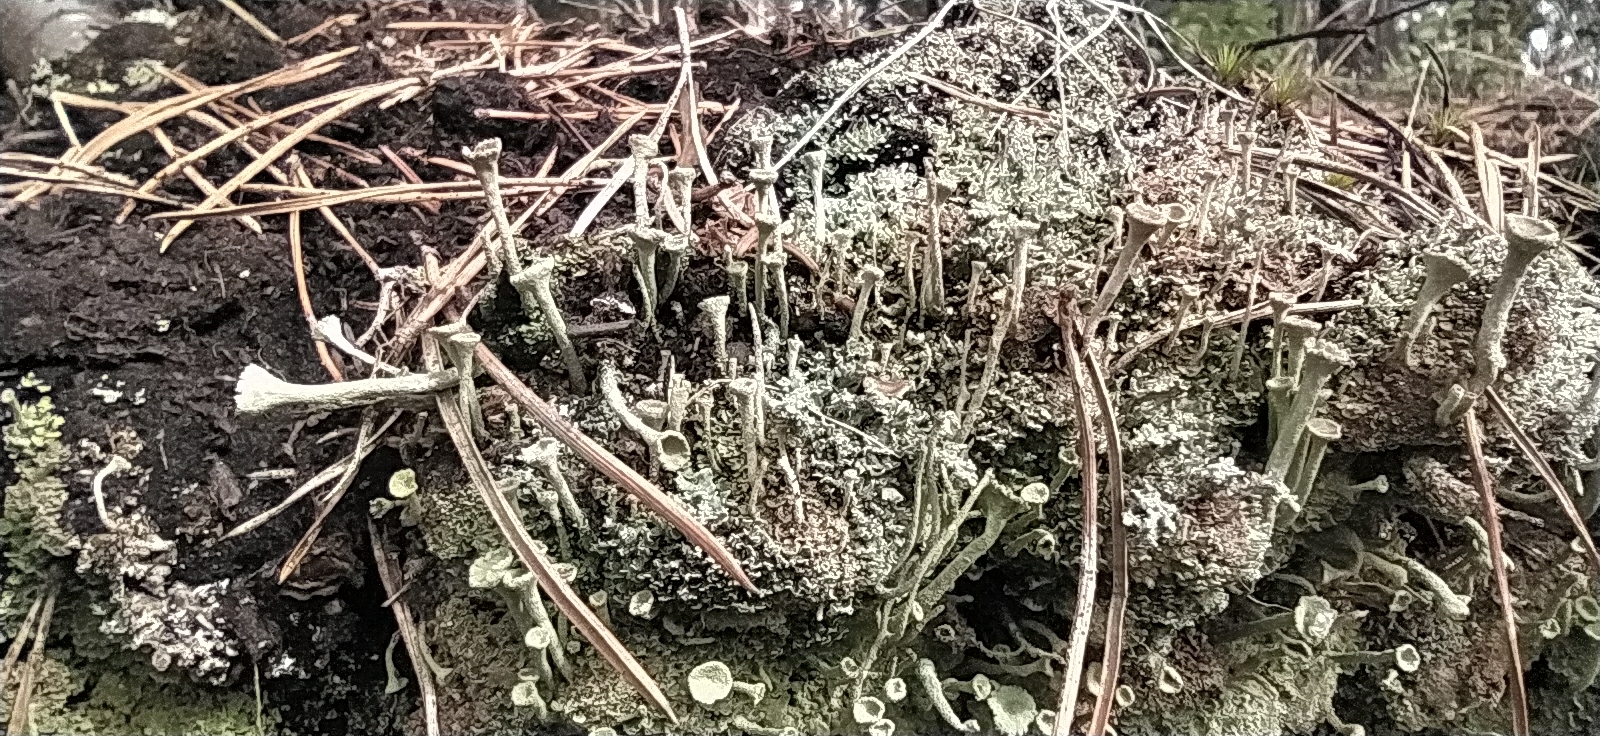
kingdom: Fungi
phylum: Ascomycota
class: Lecanoromycetes
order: Lecanorales
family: Cladoniaceae
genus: Cladonia
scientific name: Cladonia fimbriata
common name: Powdered trumpet lichen
